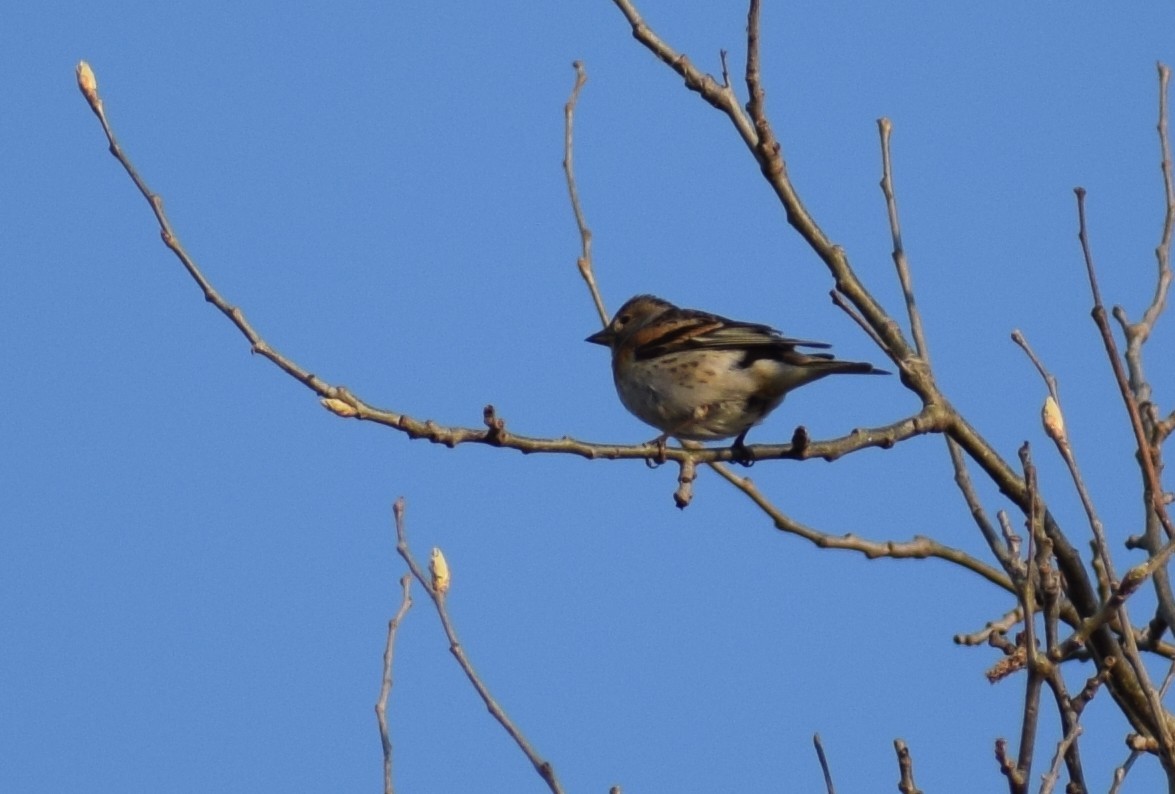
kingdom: Animalia
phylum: Chordata
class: Aves
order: Passeriformes
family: Fringillidae
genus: Fringilla
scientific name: Fringilla montifringilla
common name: Brambling
